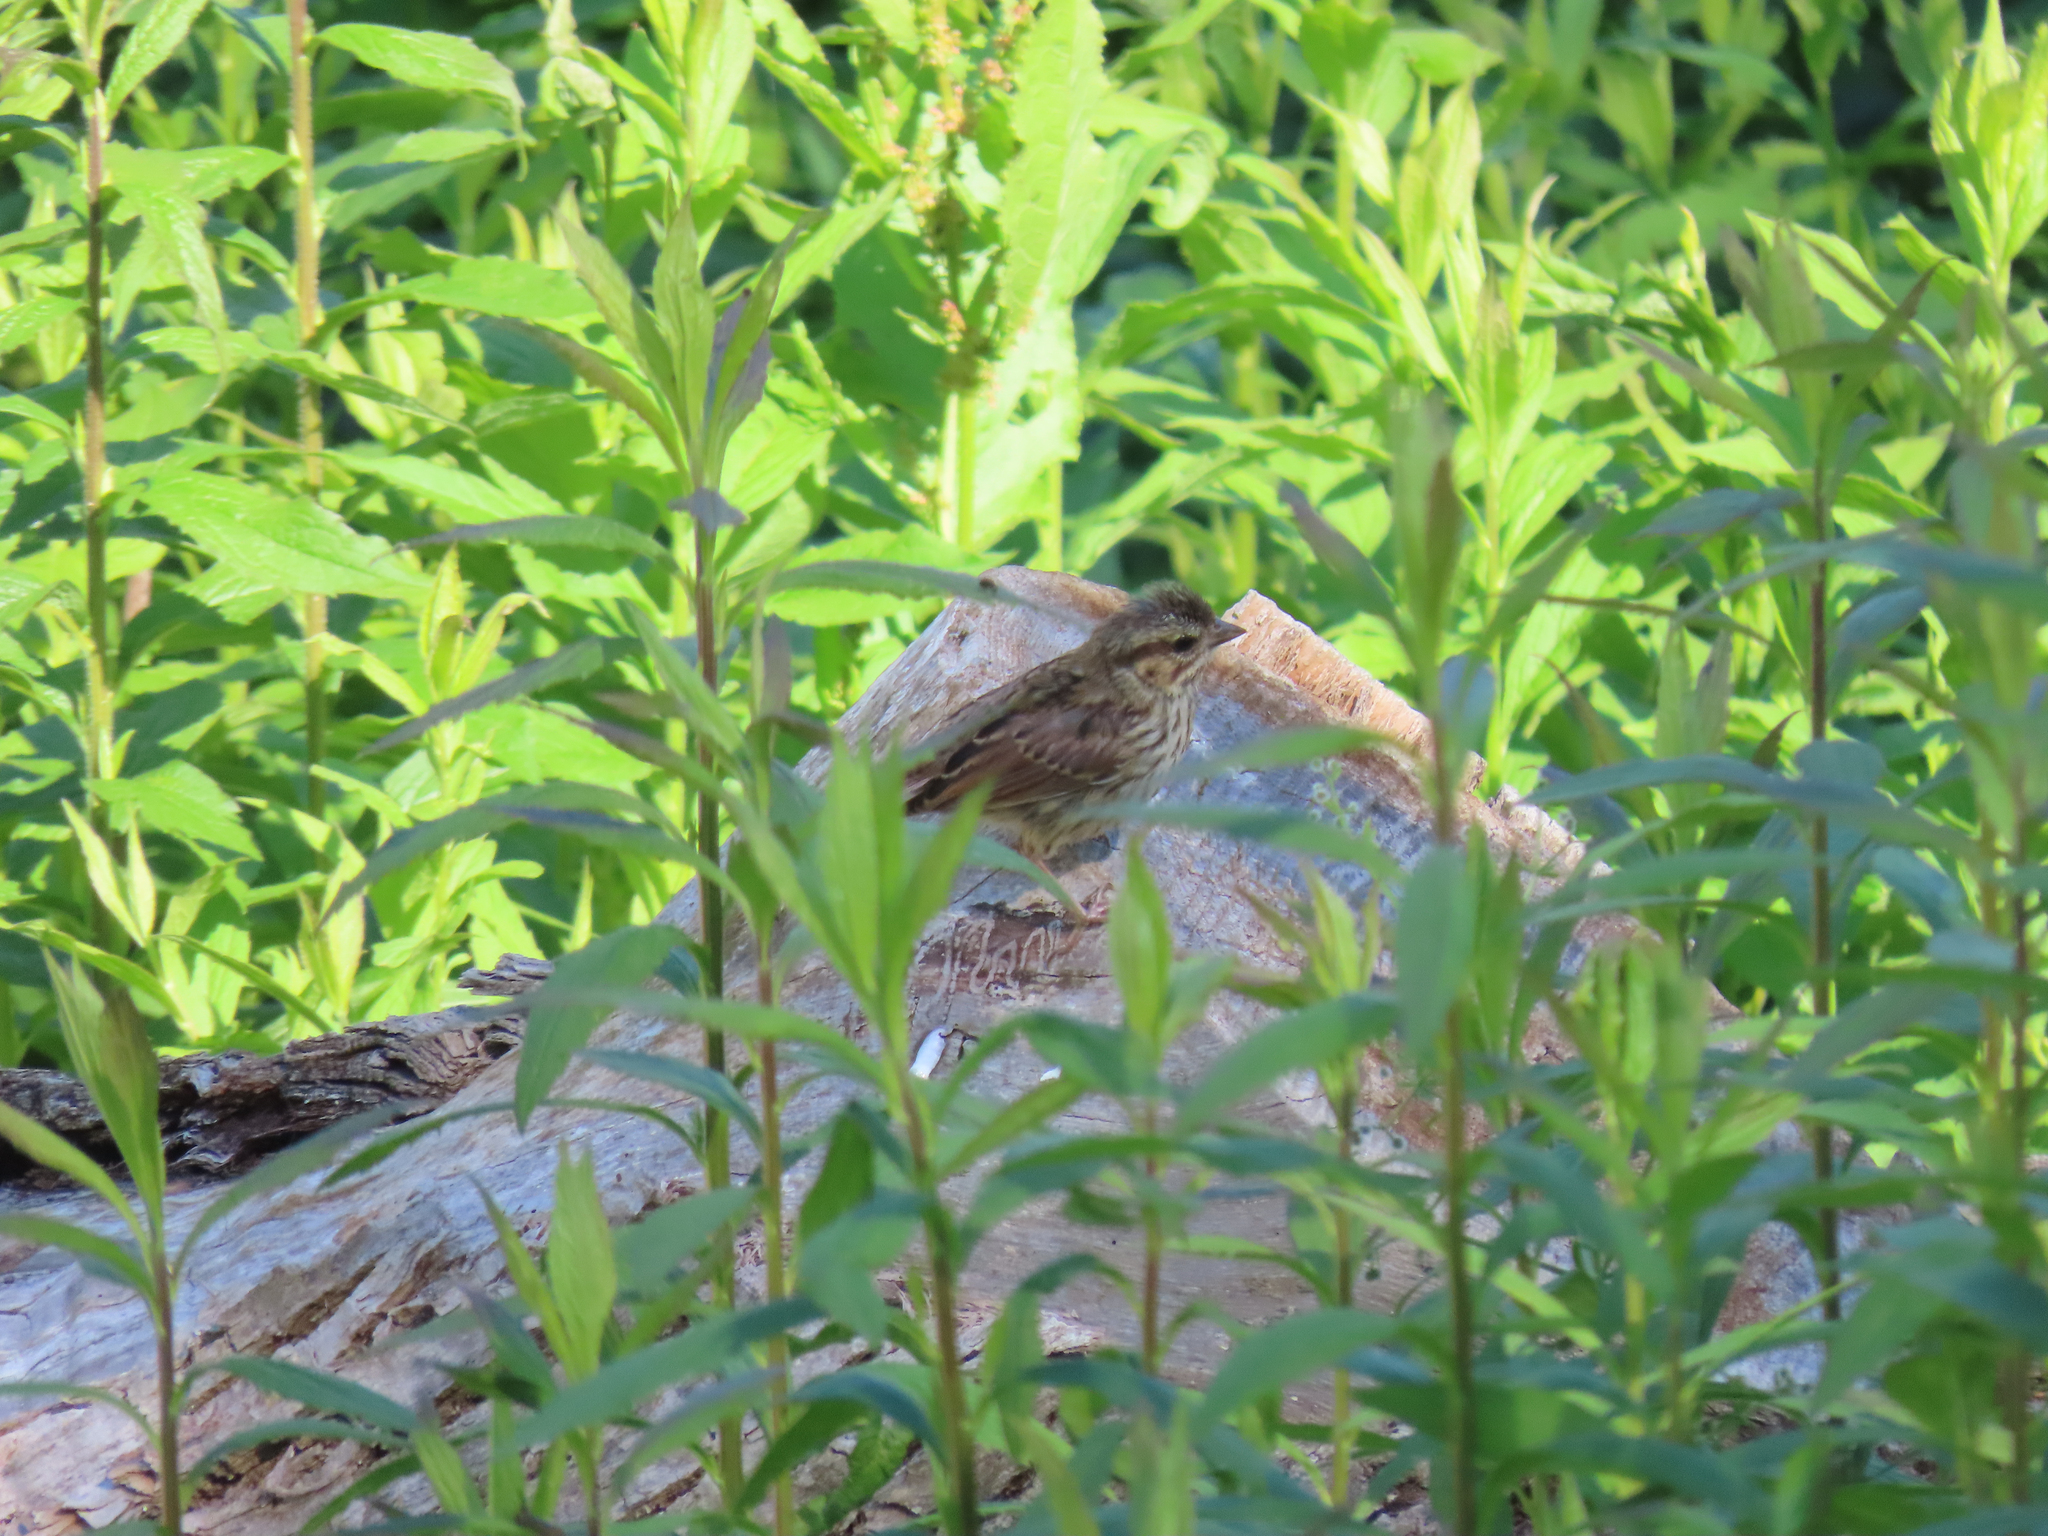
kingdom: Animalia
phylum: Chordata
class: Aves
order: Passeriformes
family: Passerellidae
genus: Melospiza
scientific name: Melospiza melodia
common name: Song sparrow
